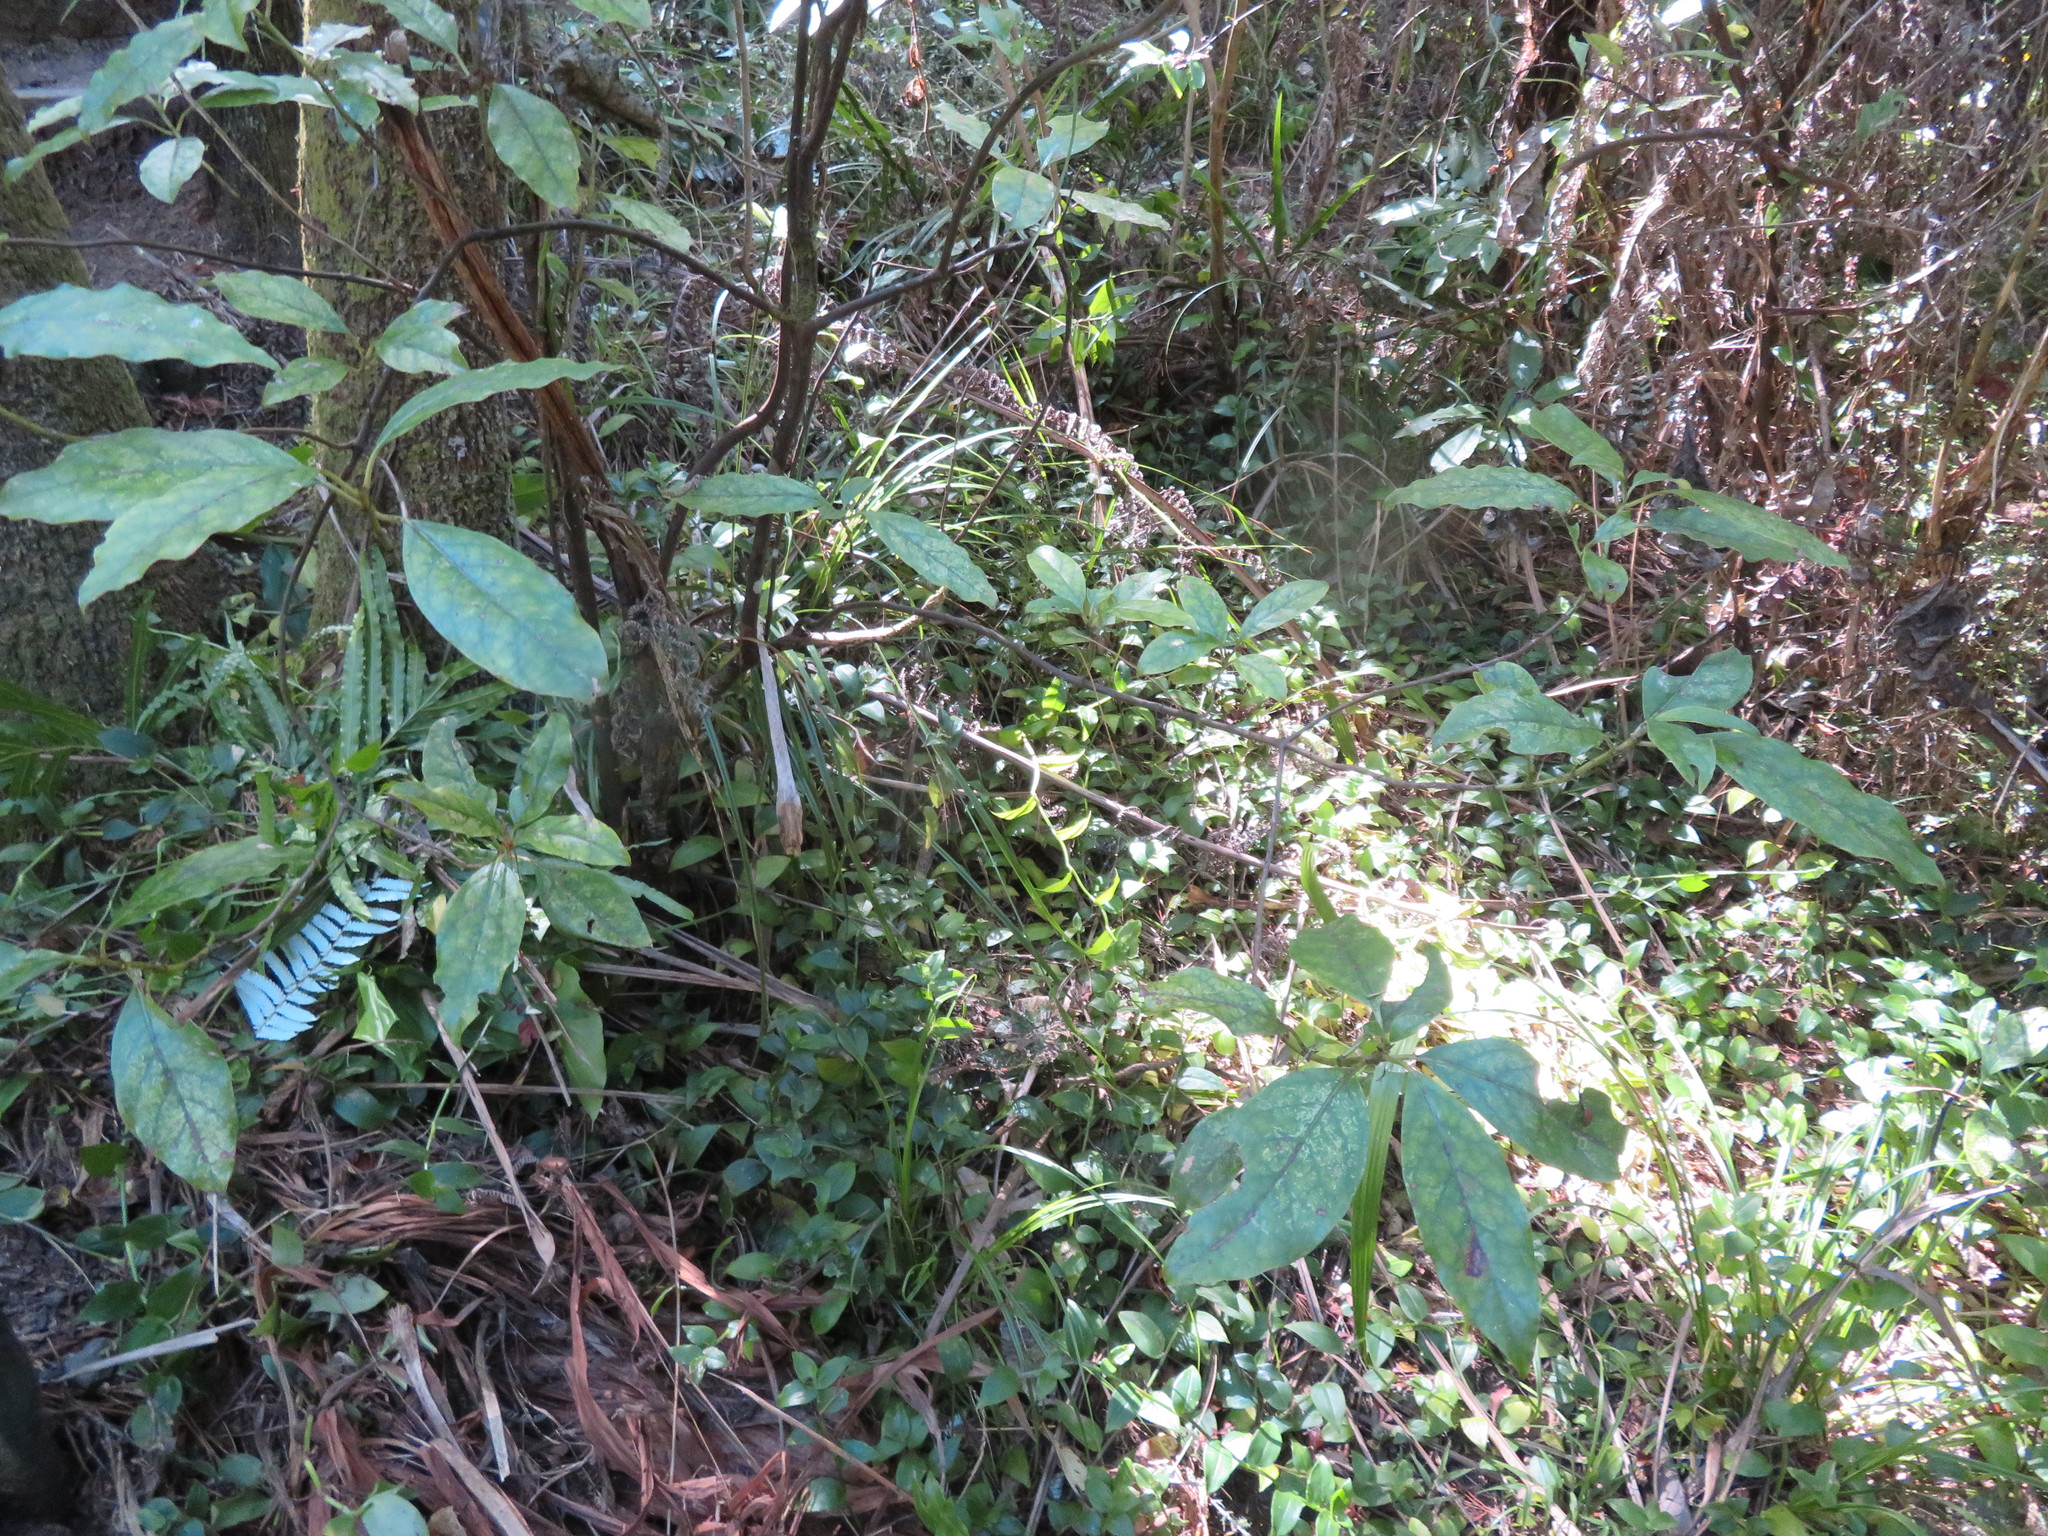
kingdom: Plantae
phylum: Tracheophyta
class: Magnoliopsida
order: Gentianales
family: Rubiaceae
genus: Coprosma
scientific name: Coprosma autumnalis
